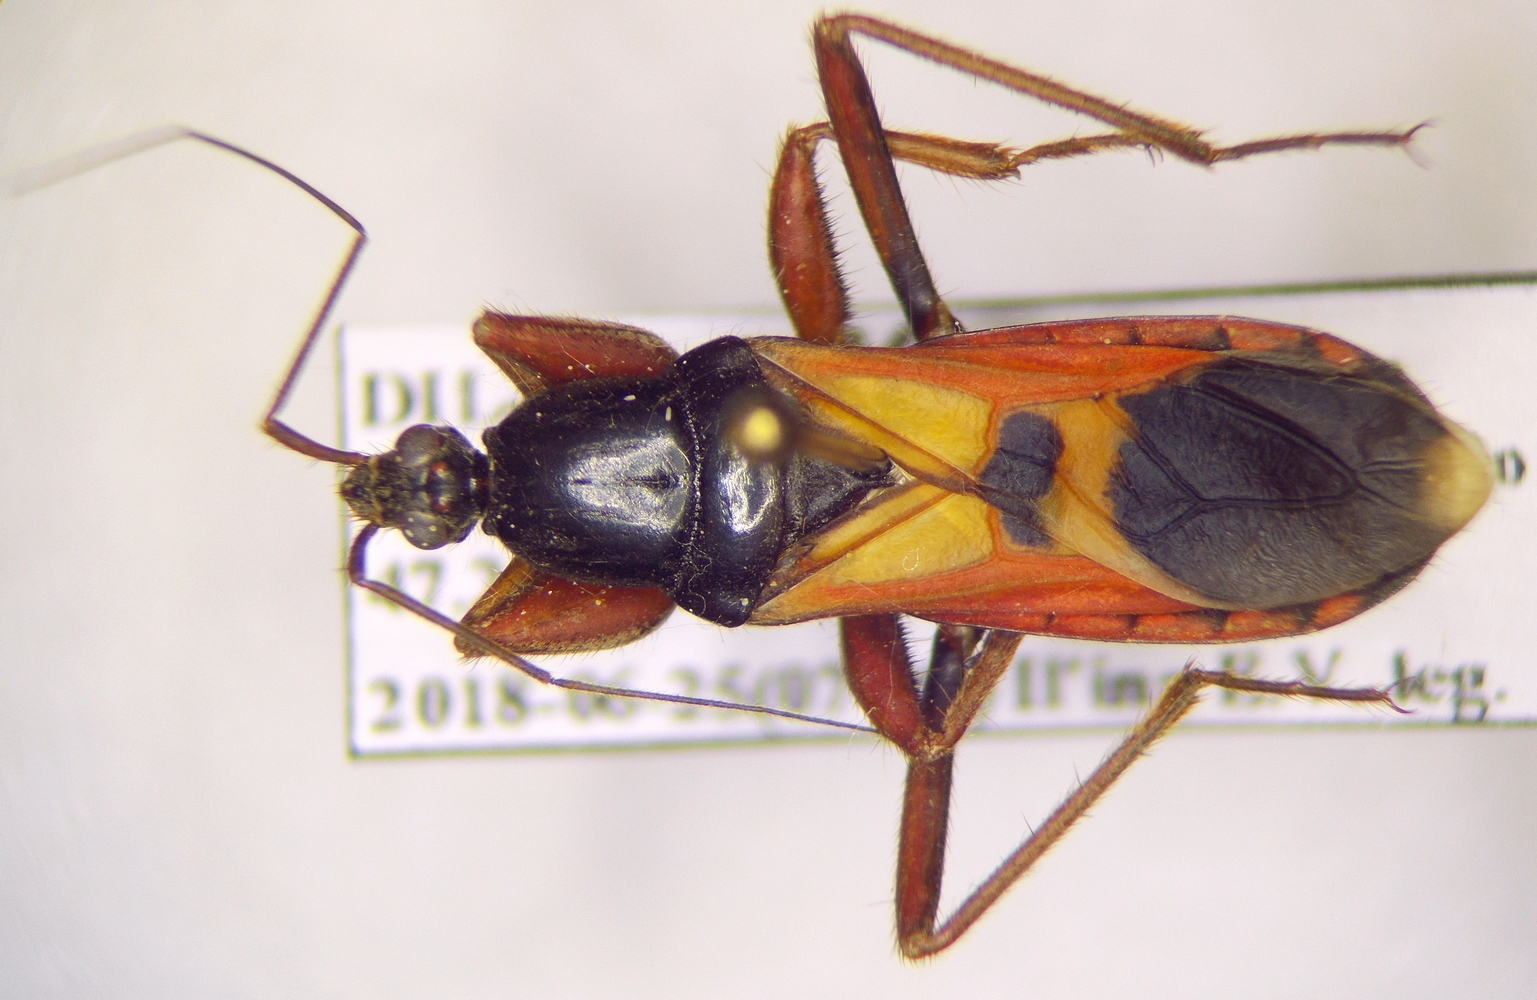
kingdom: Animalia
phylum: Arthropoda
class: Insecta
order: Hemiptera
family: Reduviidae
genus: Ectomocoris
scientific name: Ectomocoris ululans
